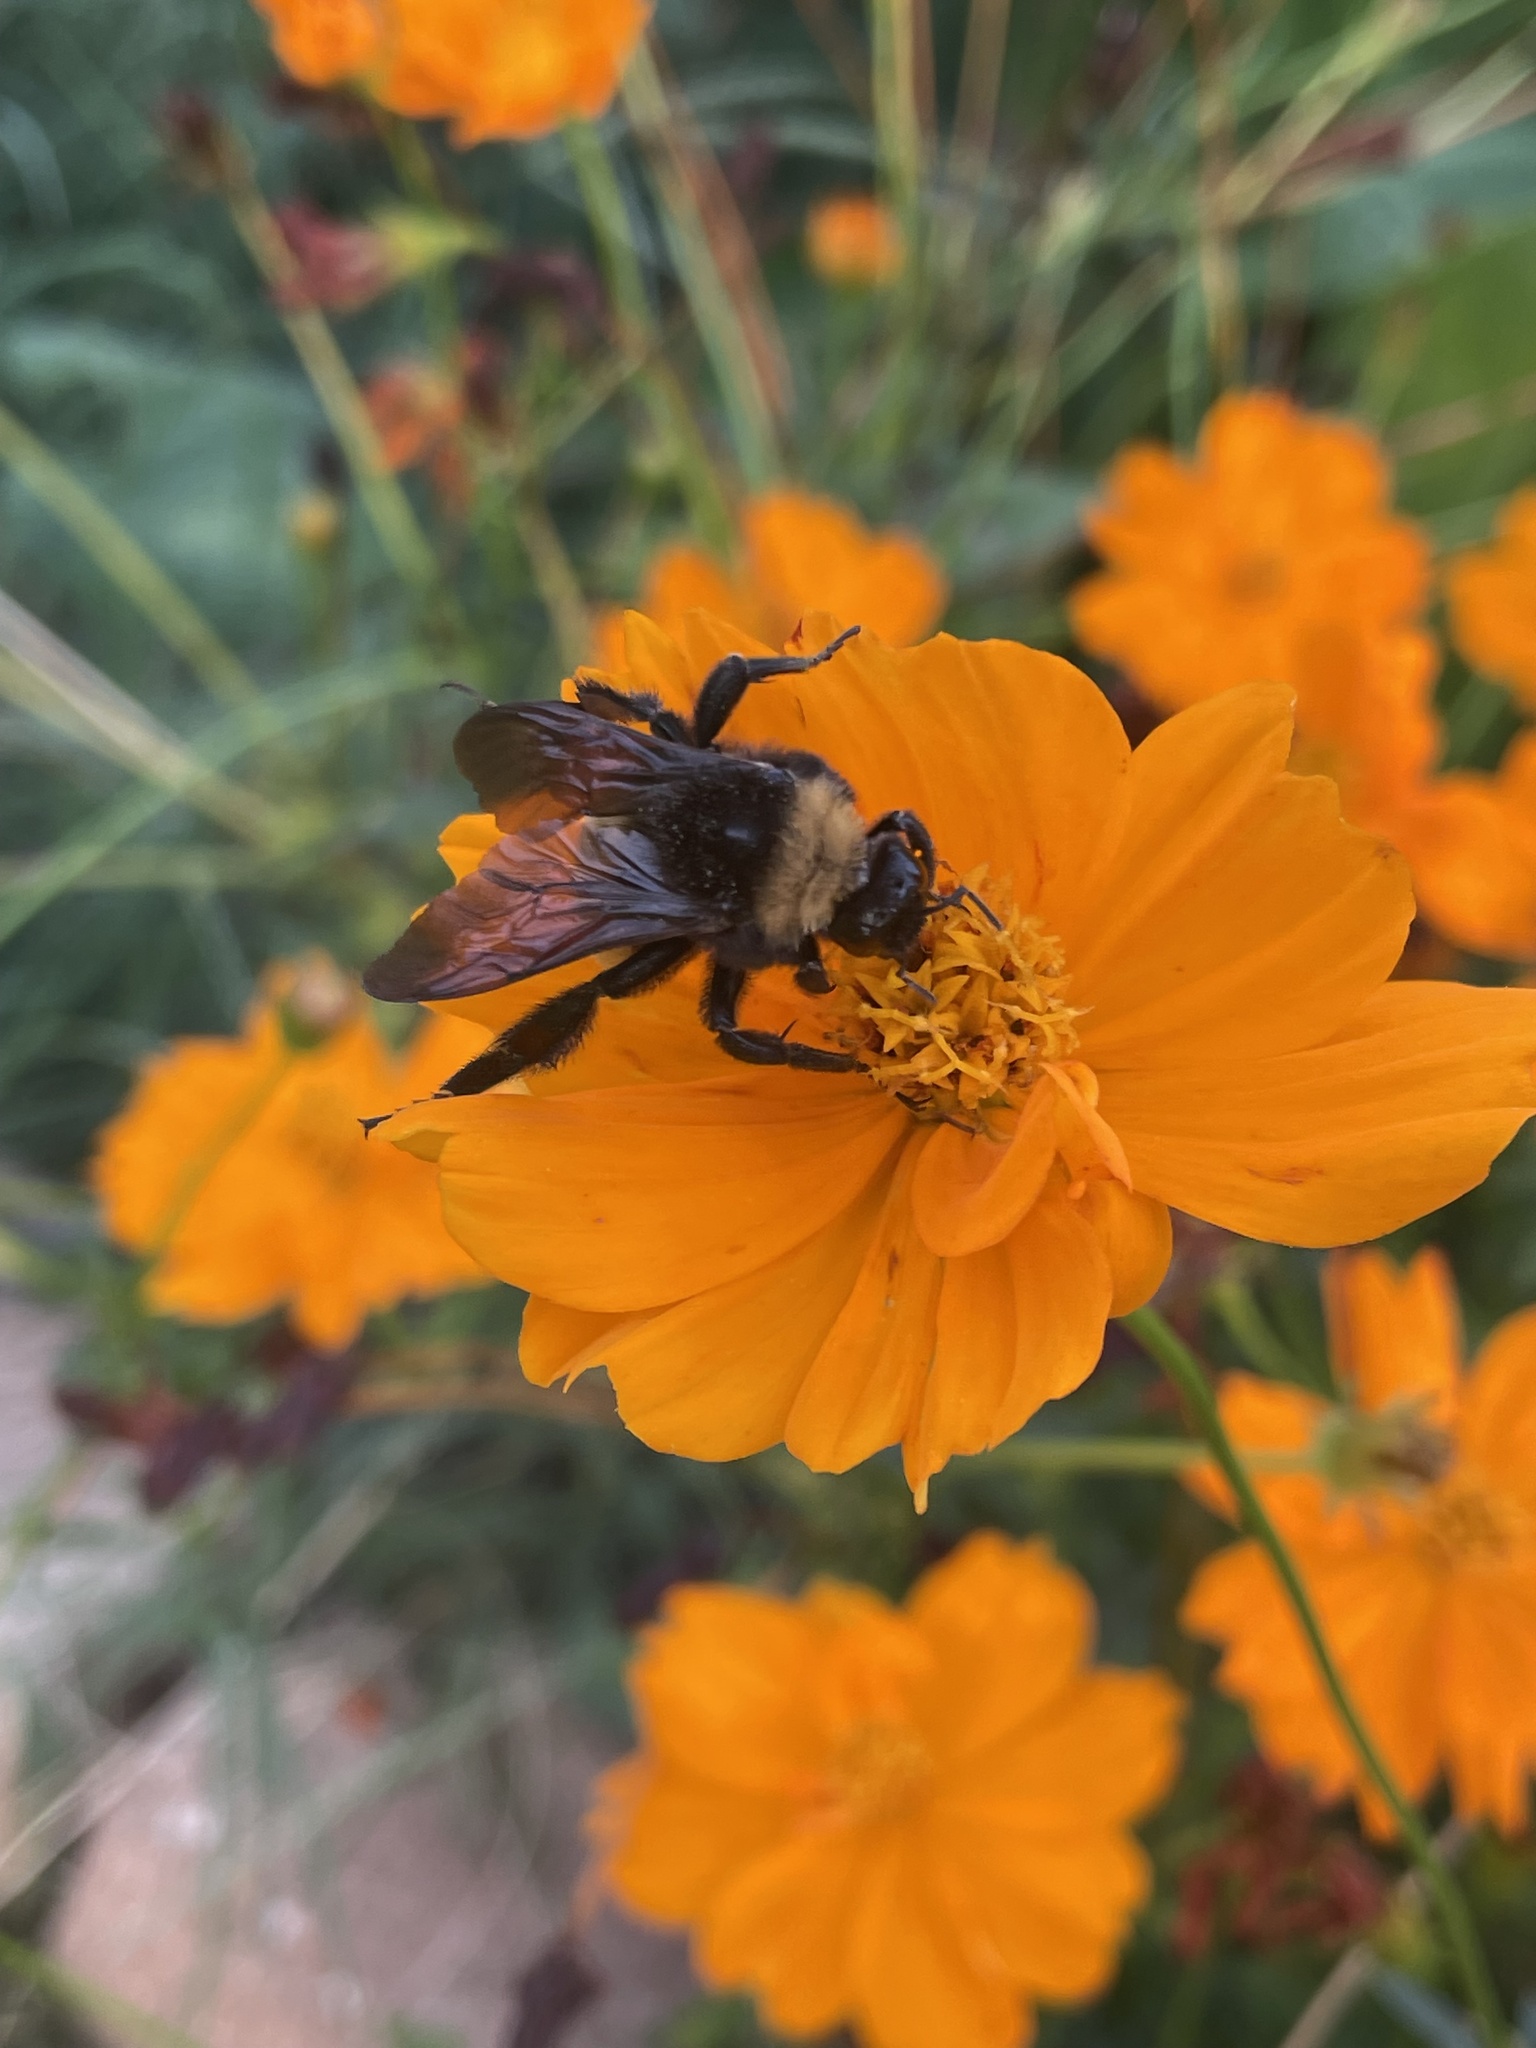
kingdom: Animalia
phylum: Arthropoda
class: Insecta
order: Hymenoptera
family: Apidae
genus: Bombus
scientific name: Bombus pensylvanicus
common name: Bumble bee
